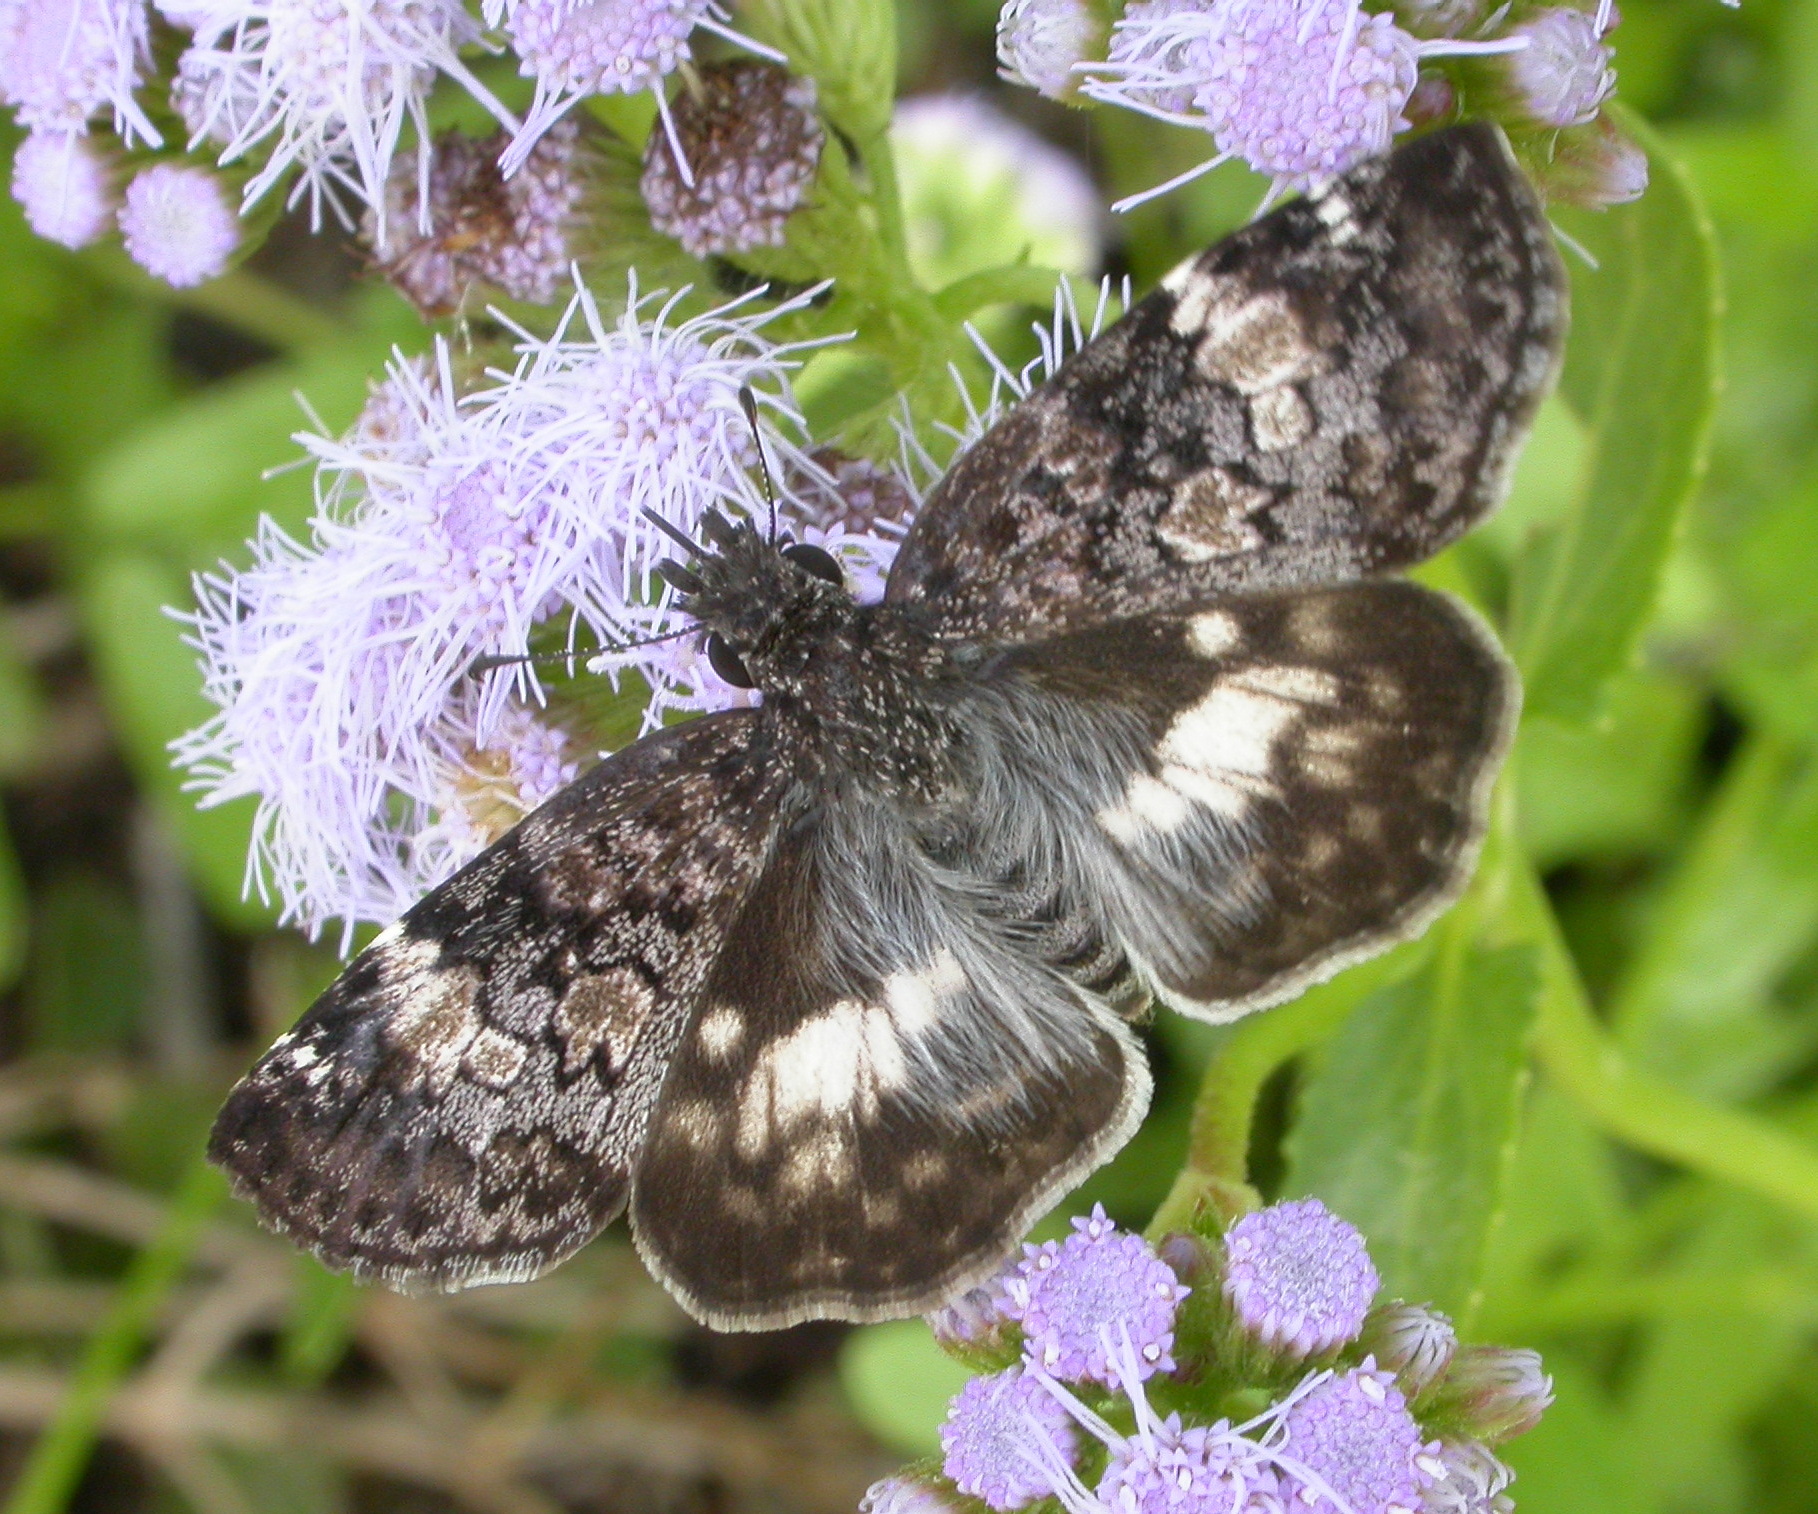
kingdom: Animalia
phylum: Arthropoda
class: Insecta
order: Lepidoptera
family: Hesperiidae
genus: Chiothion
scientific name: Chiothion georgina
